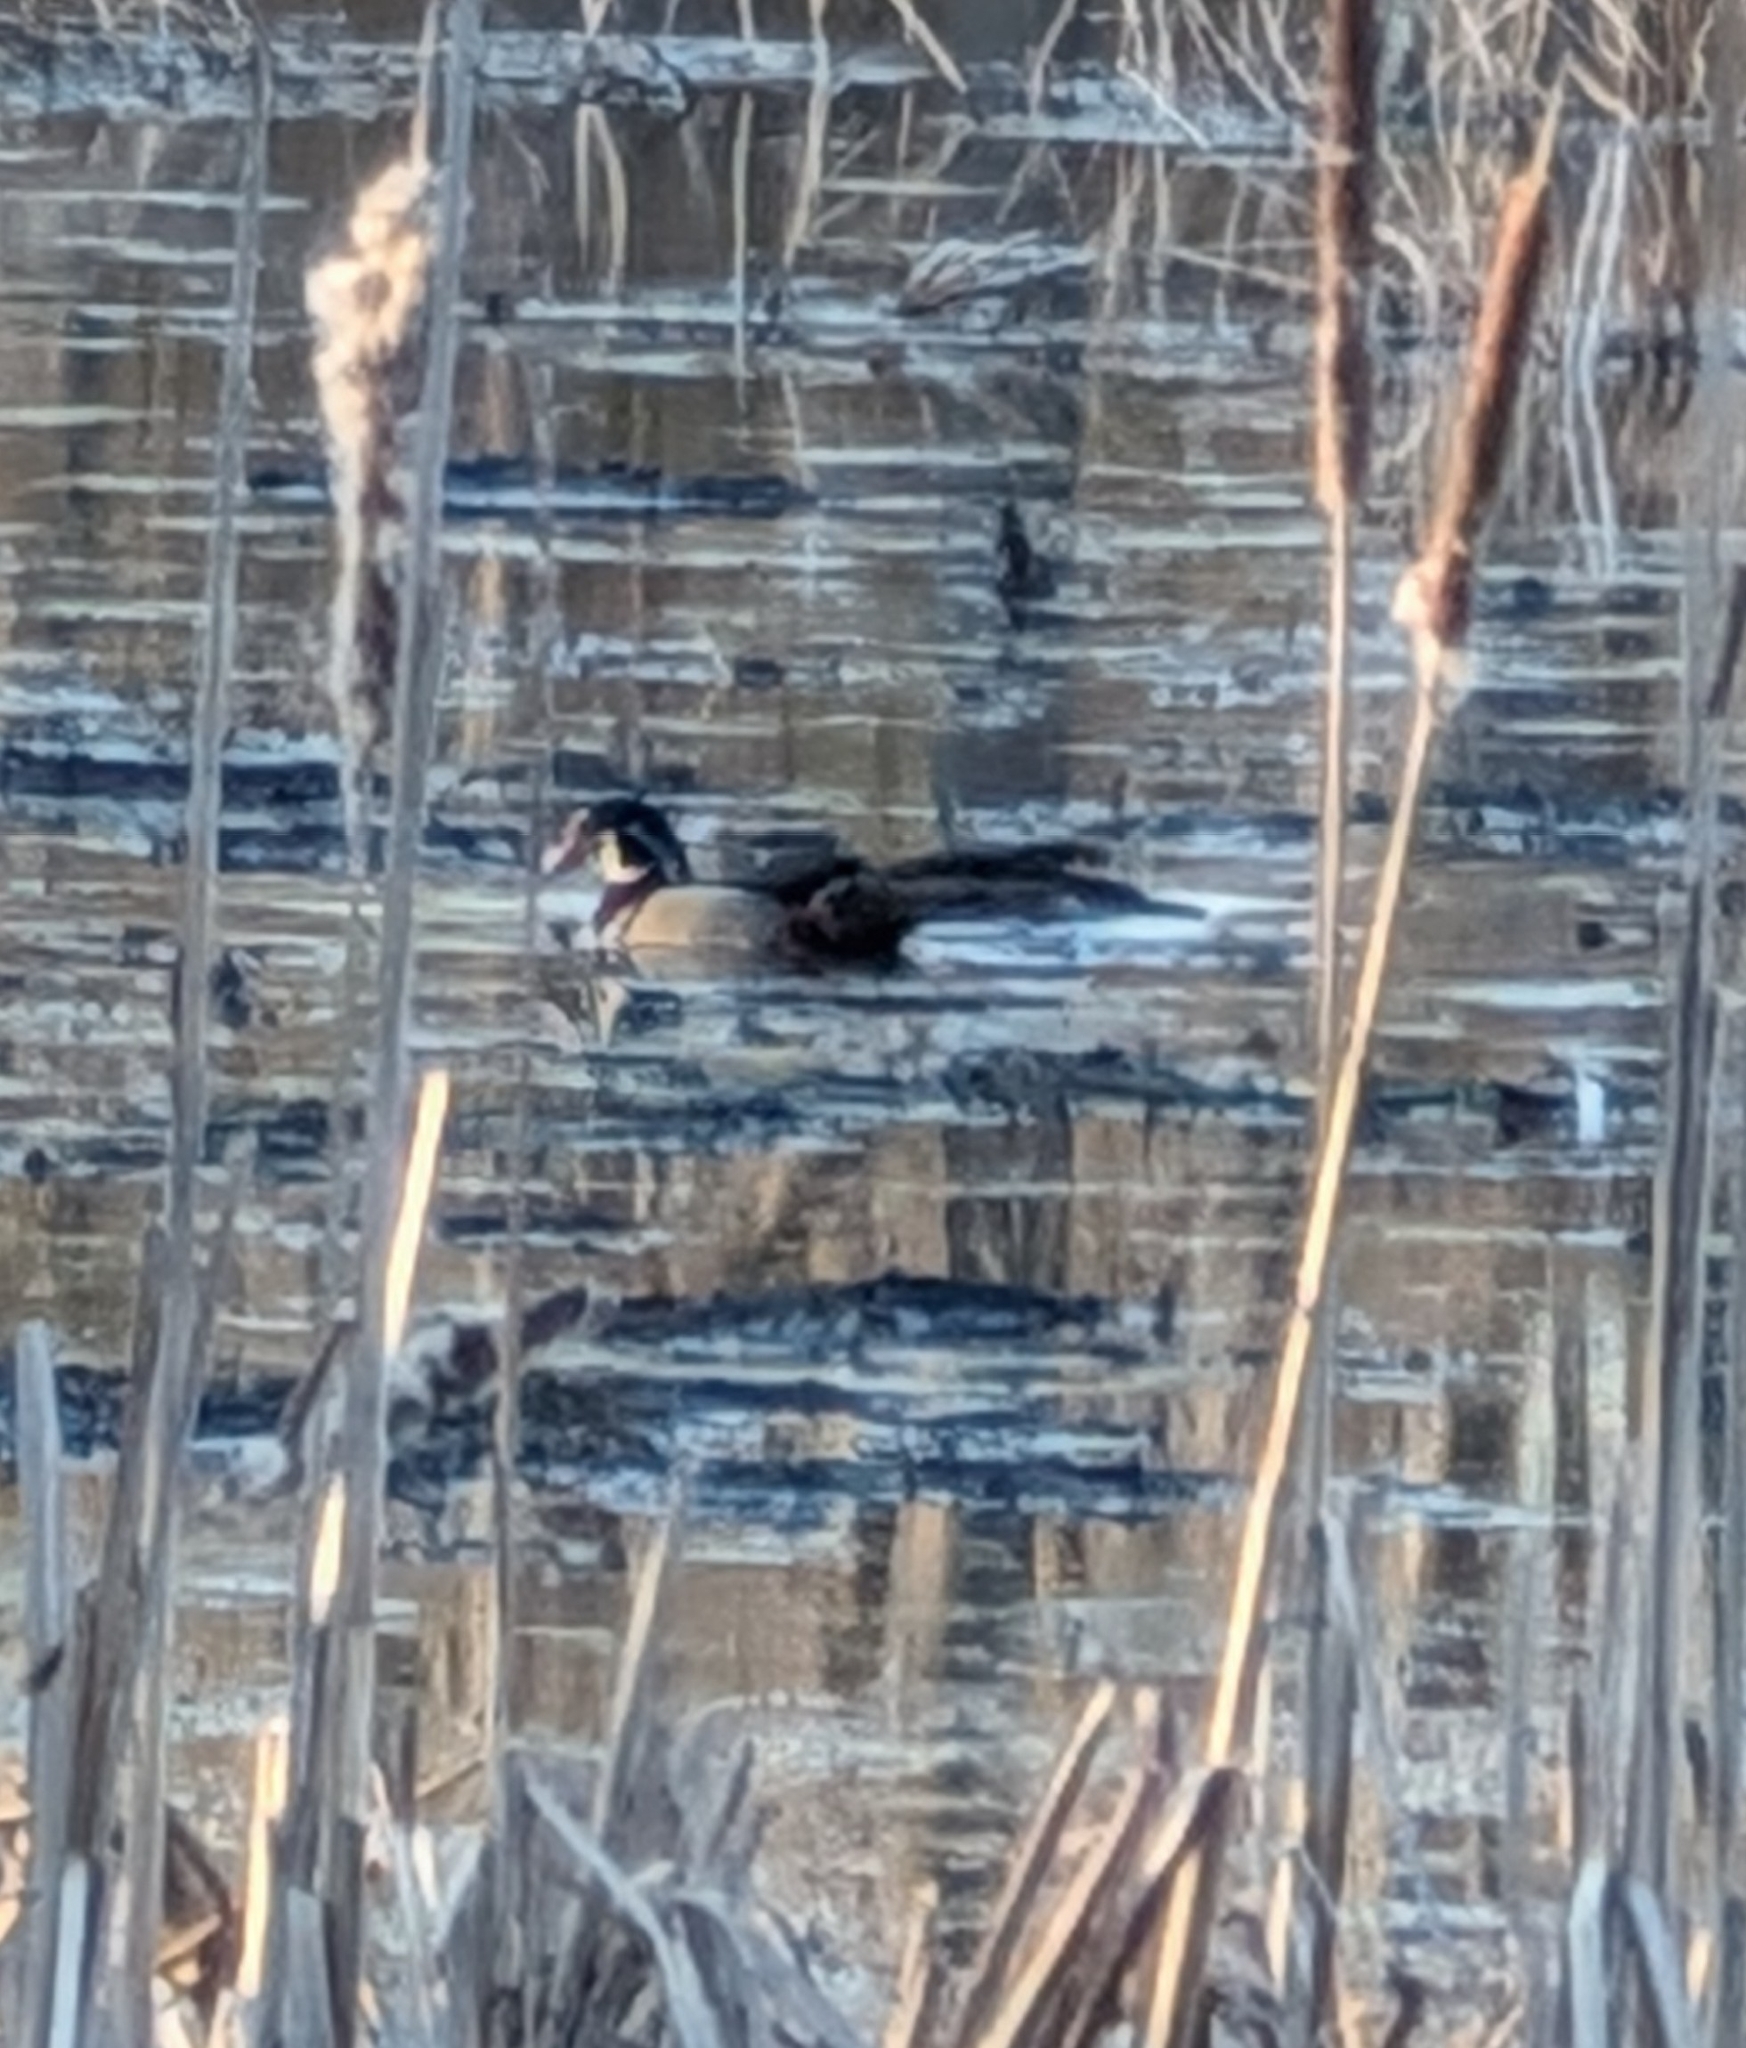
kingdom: Animalia
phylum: Chordata
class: Aves
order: Anseriformes
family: Anatidae
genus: Aix
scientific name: Aix sponsa
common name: Wood duck
